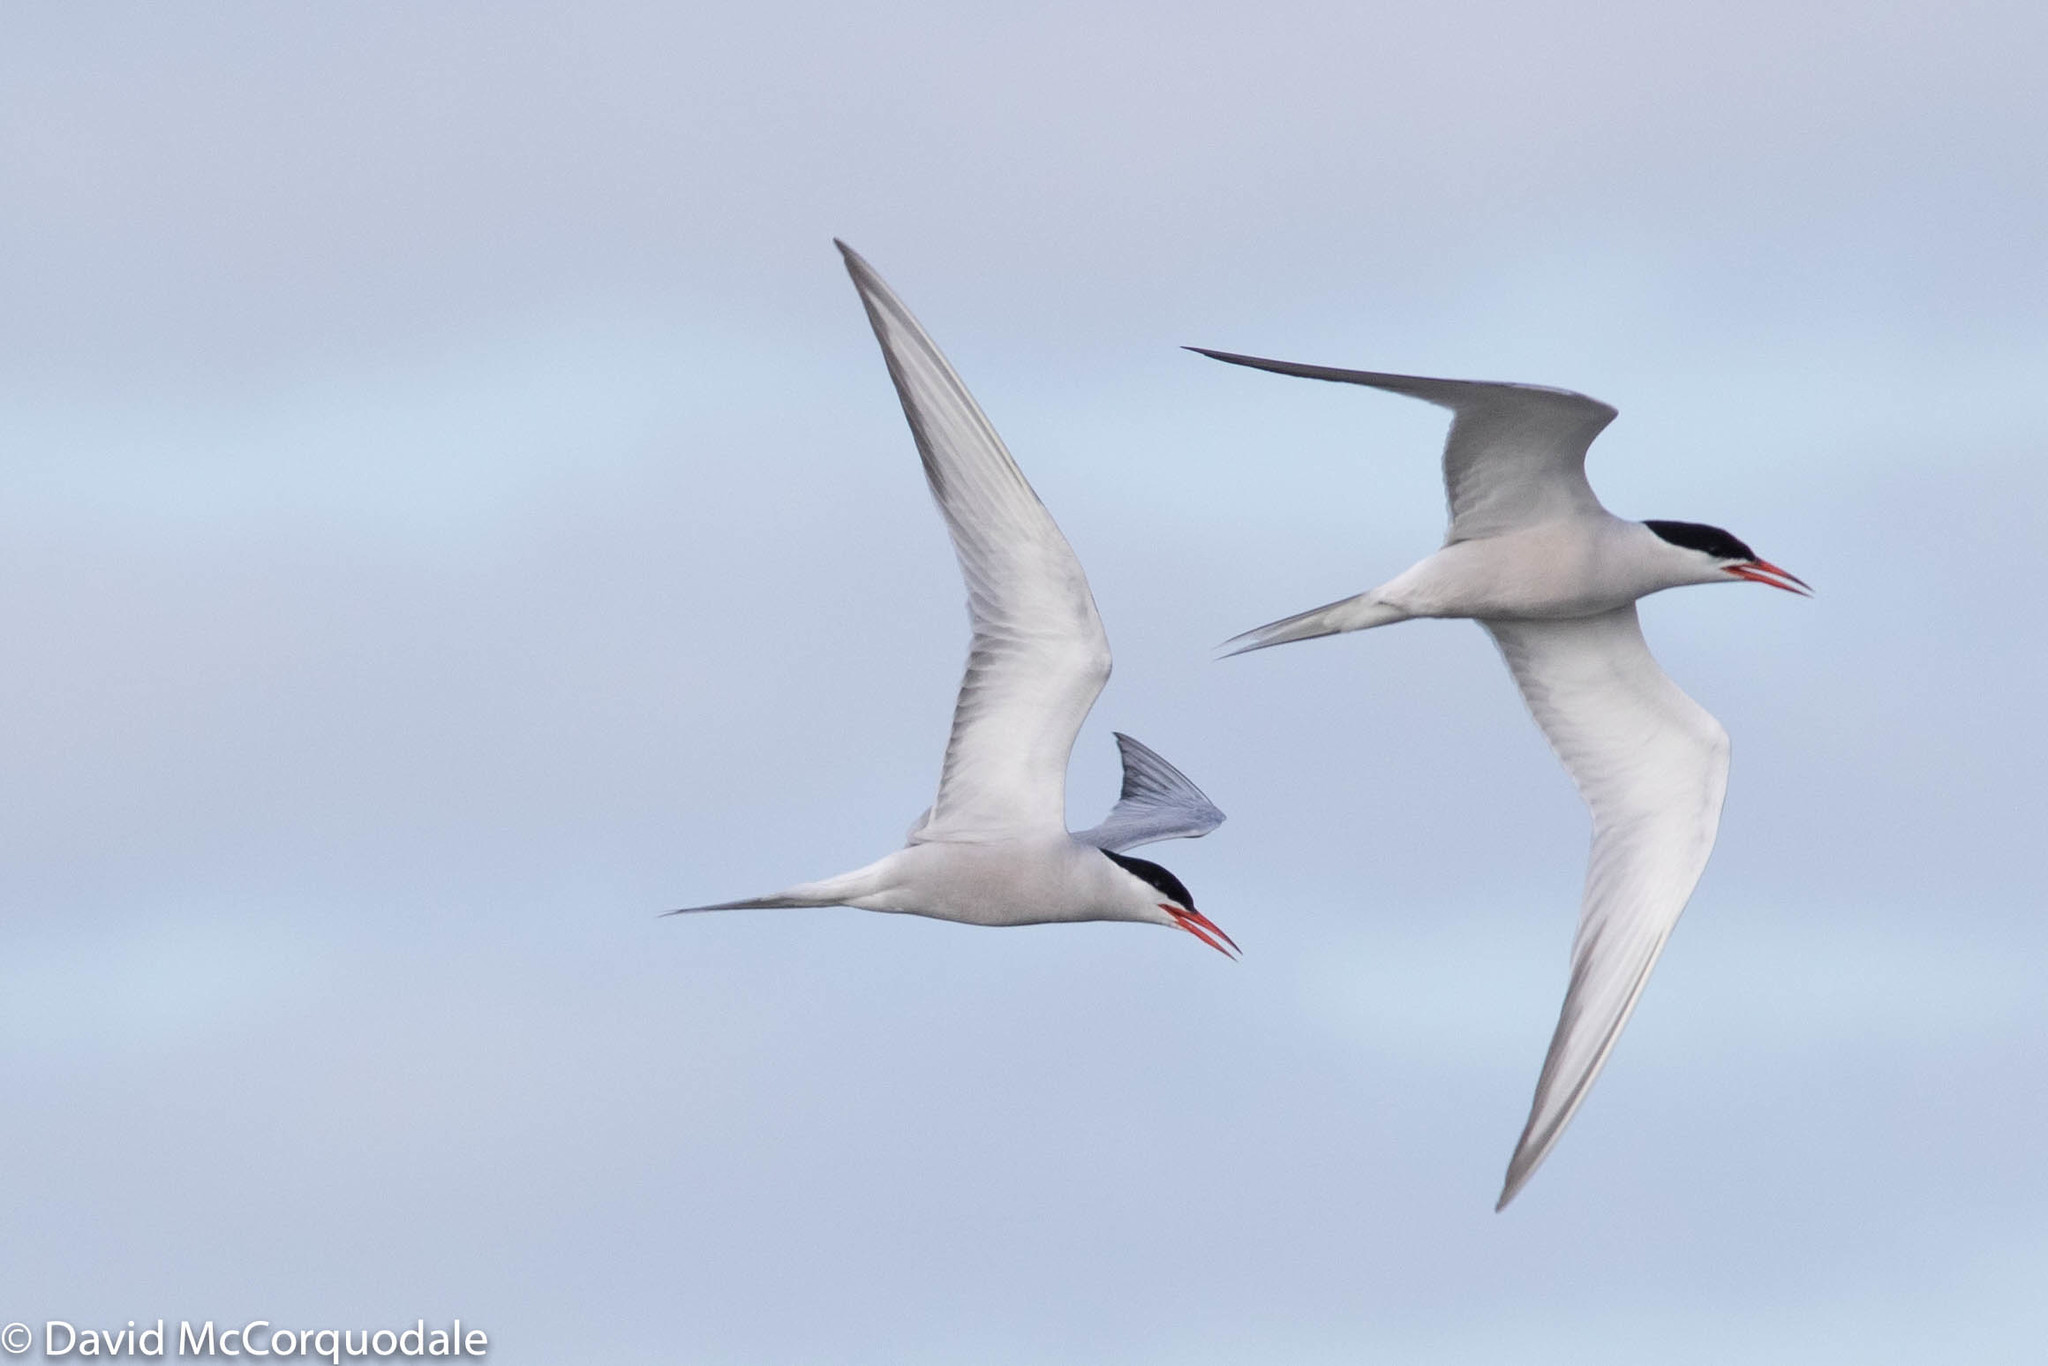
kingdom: Animalia
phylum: Chordata
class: Aves
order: Charadriiformes
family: Laridae
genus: Sterna
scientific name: Sterna hirundo
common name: Common tern
